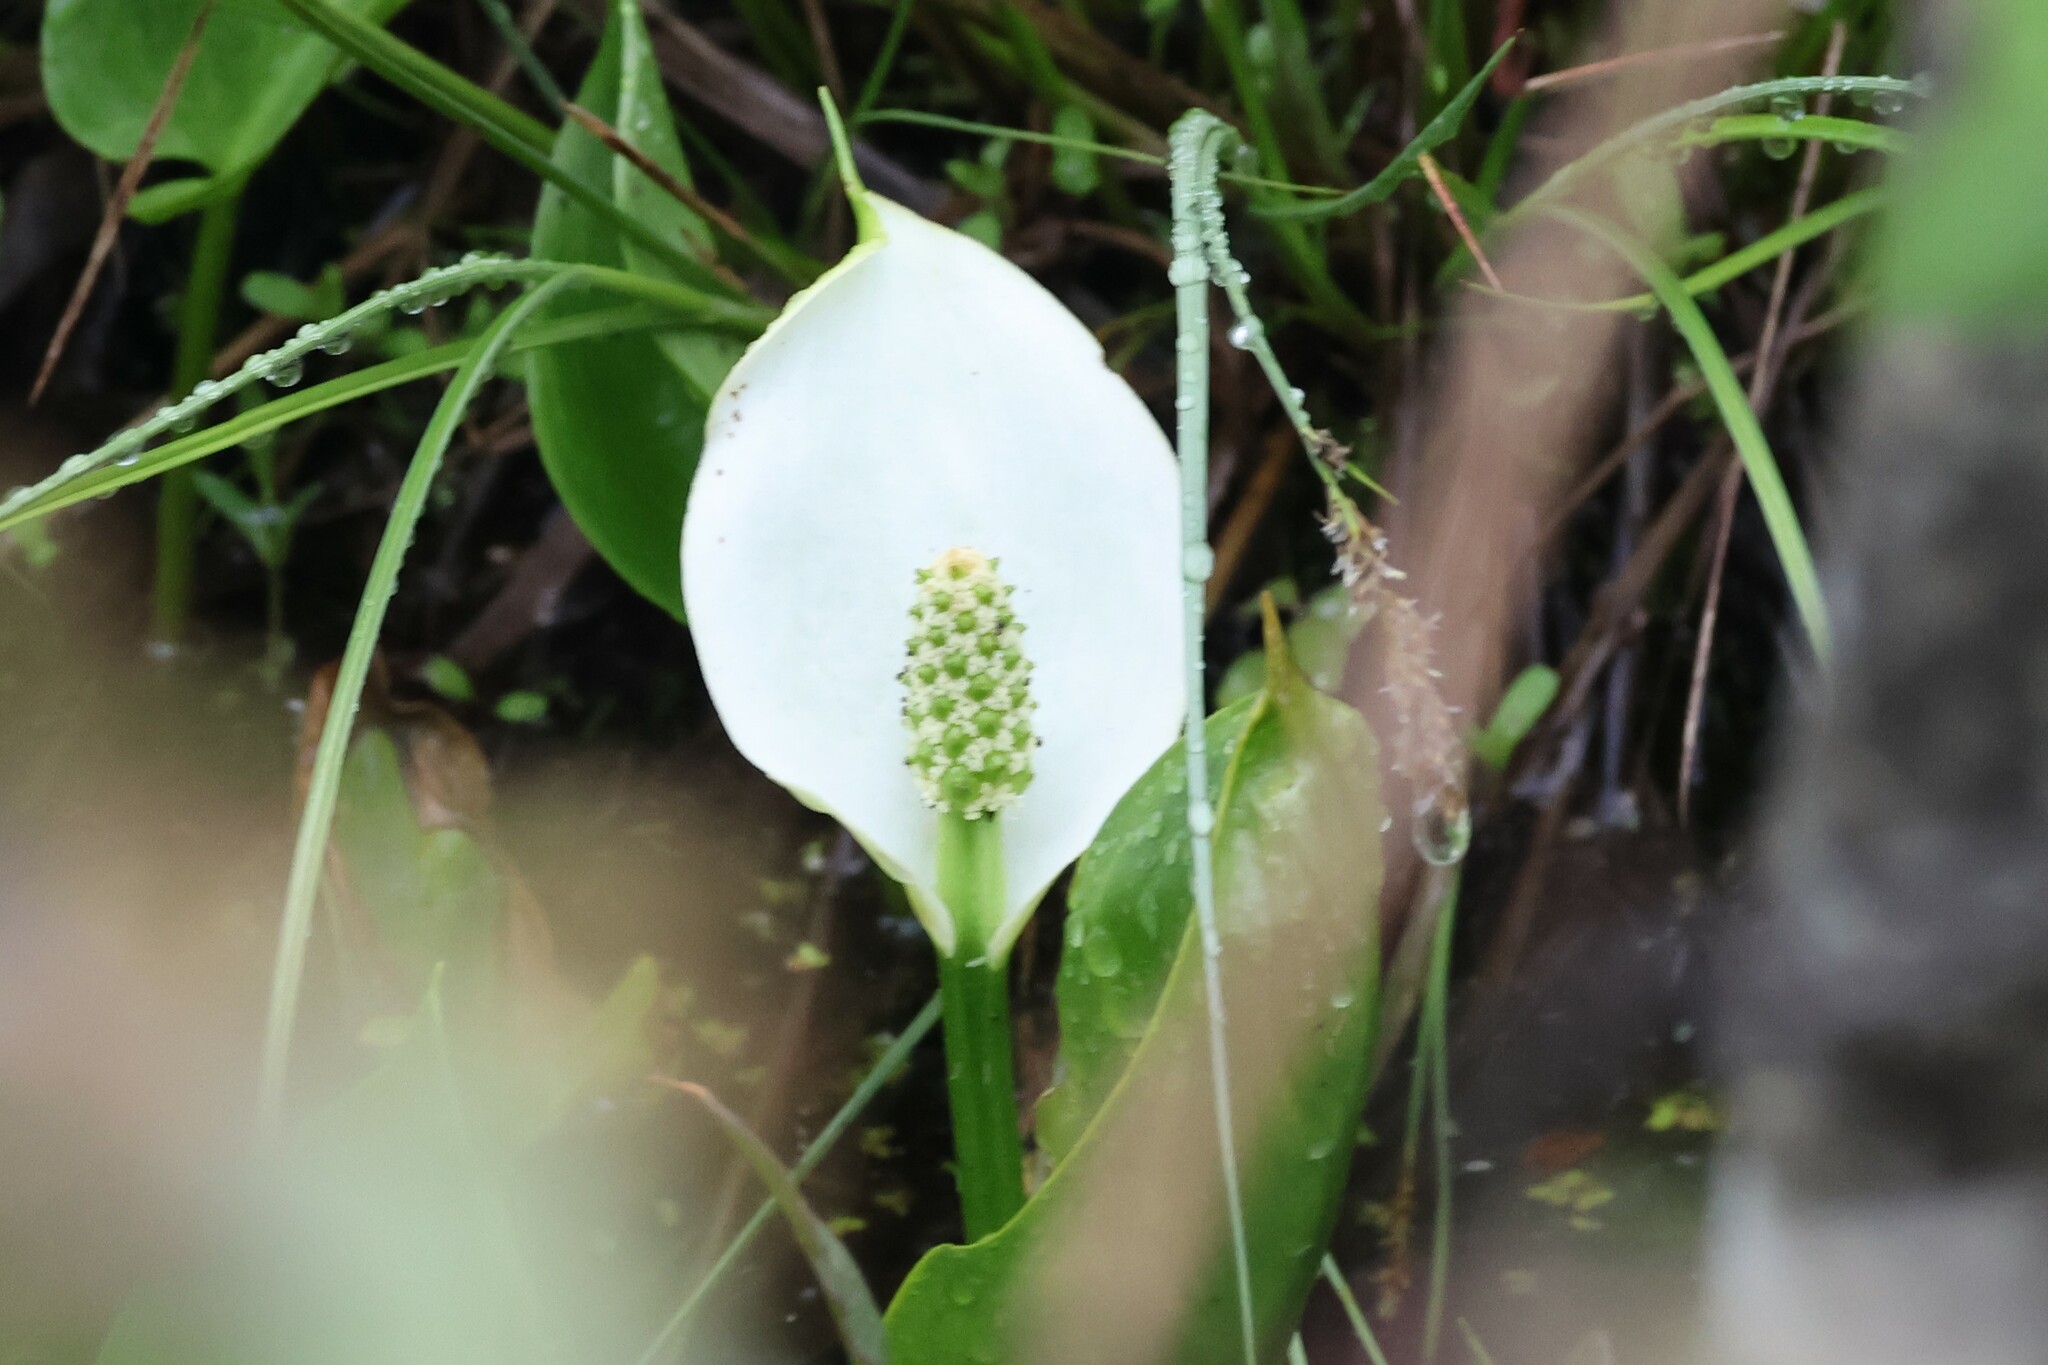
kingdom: Plantae
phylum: Tracheophyta
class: Liliopsida
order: Alismatales
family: Araceae
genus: Calla
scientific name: Calla palustris
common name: Bog arum
